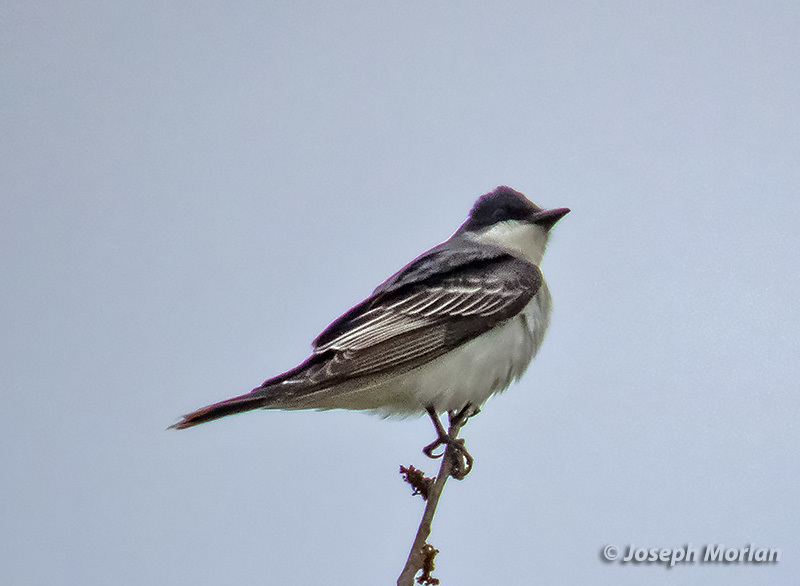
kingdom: Animalia
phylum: Chordata
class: Aves
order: Passeriformes
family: Tyrannidae
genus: Tyrannus
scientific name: Tyrannus tyrannus
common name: Eastern kingbird
